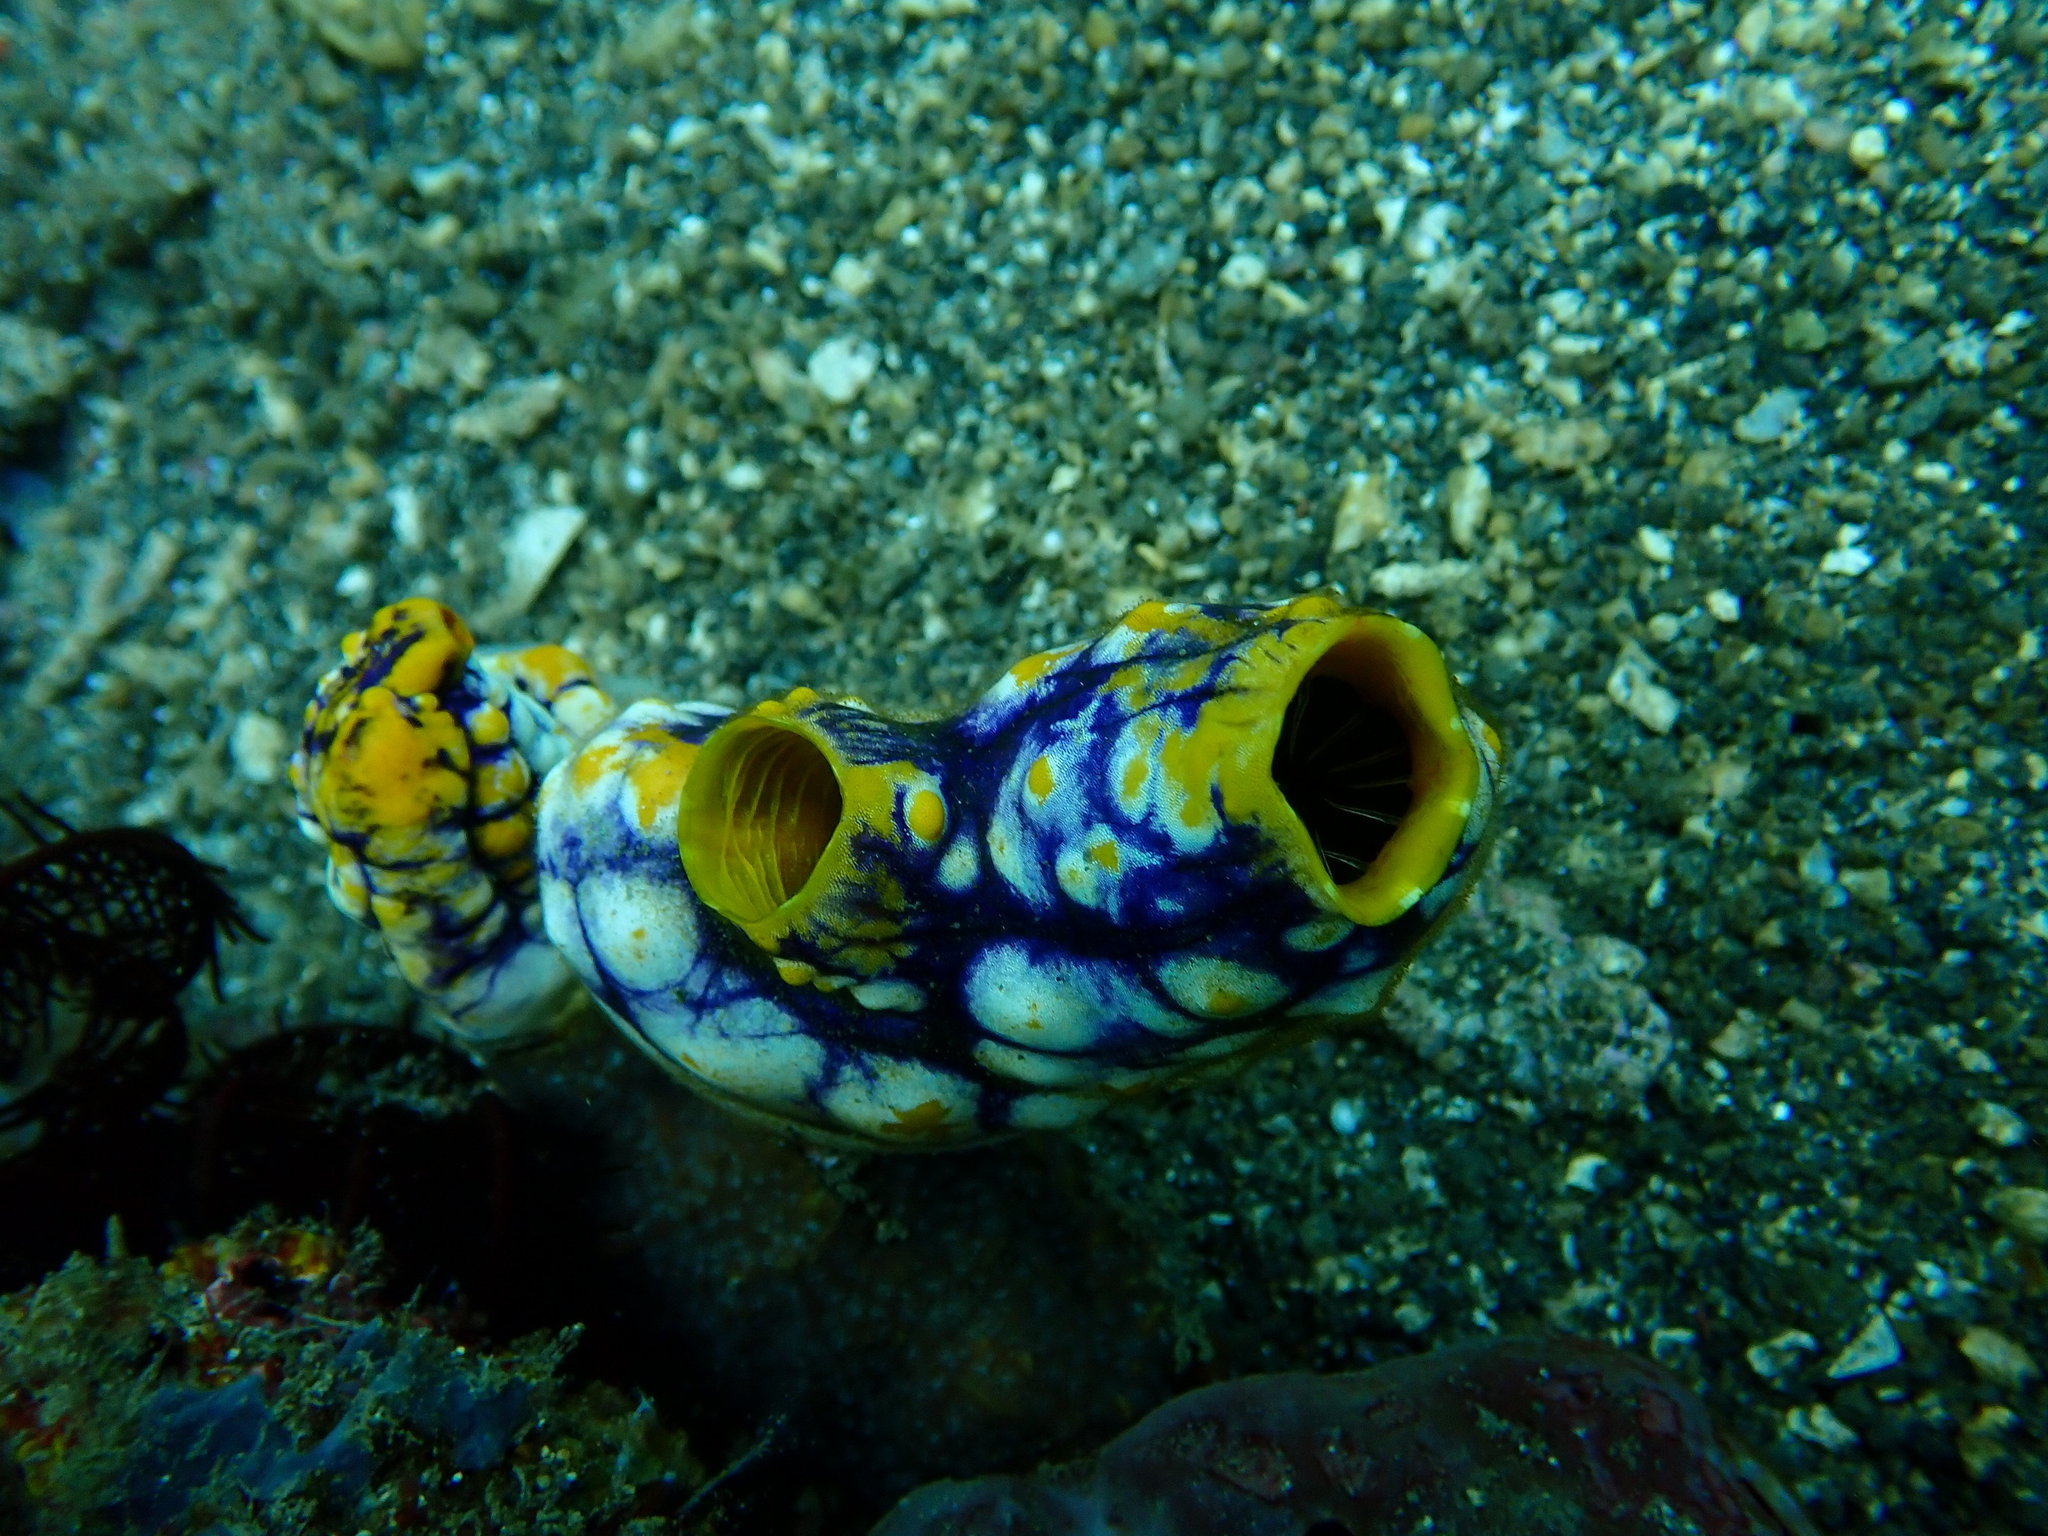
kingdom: Animalia
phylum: Chordata
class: Ascidiacea
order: Stolidobranchia
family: Styelidae
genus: Polycarpa
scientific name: Polycarpa aurata
